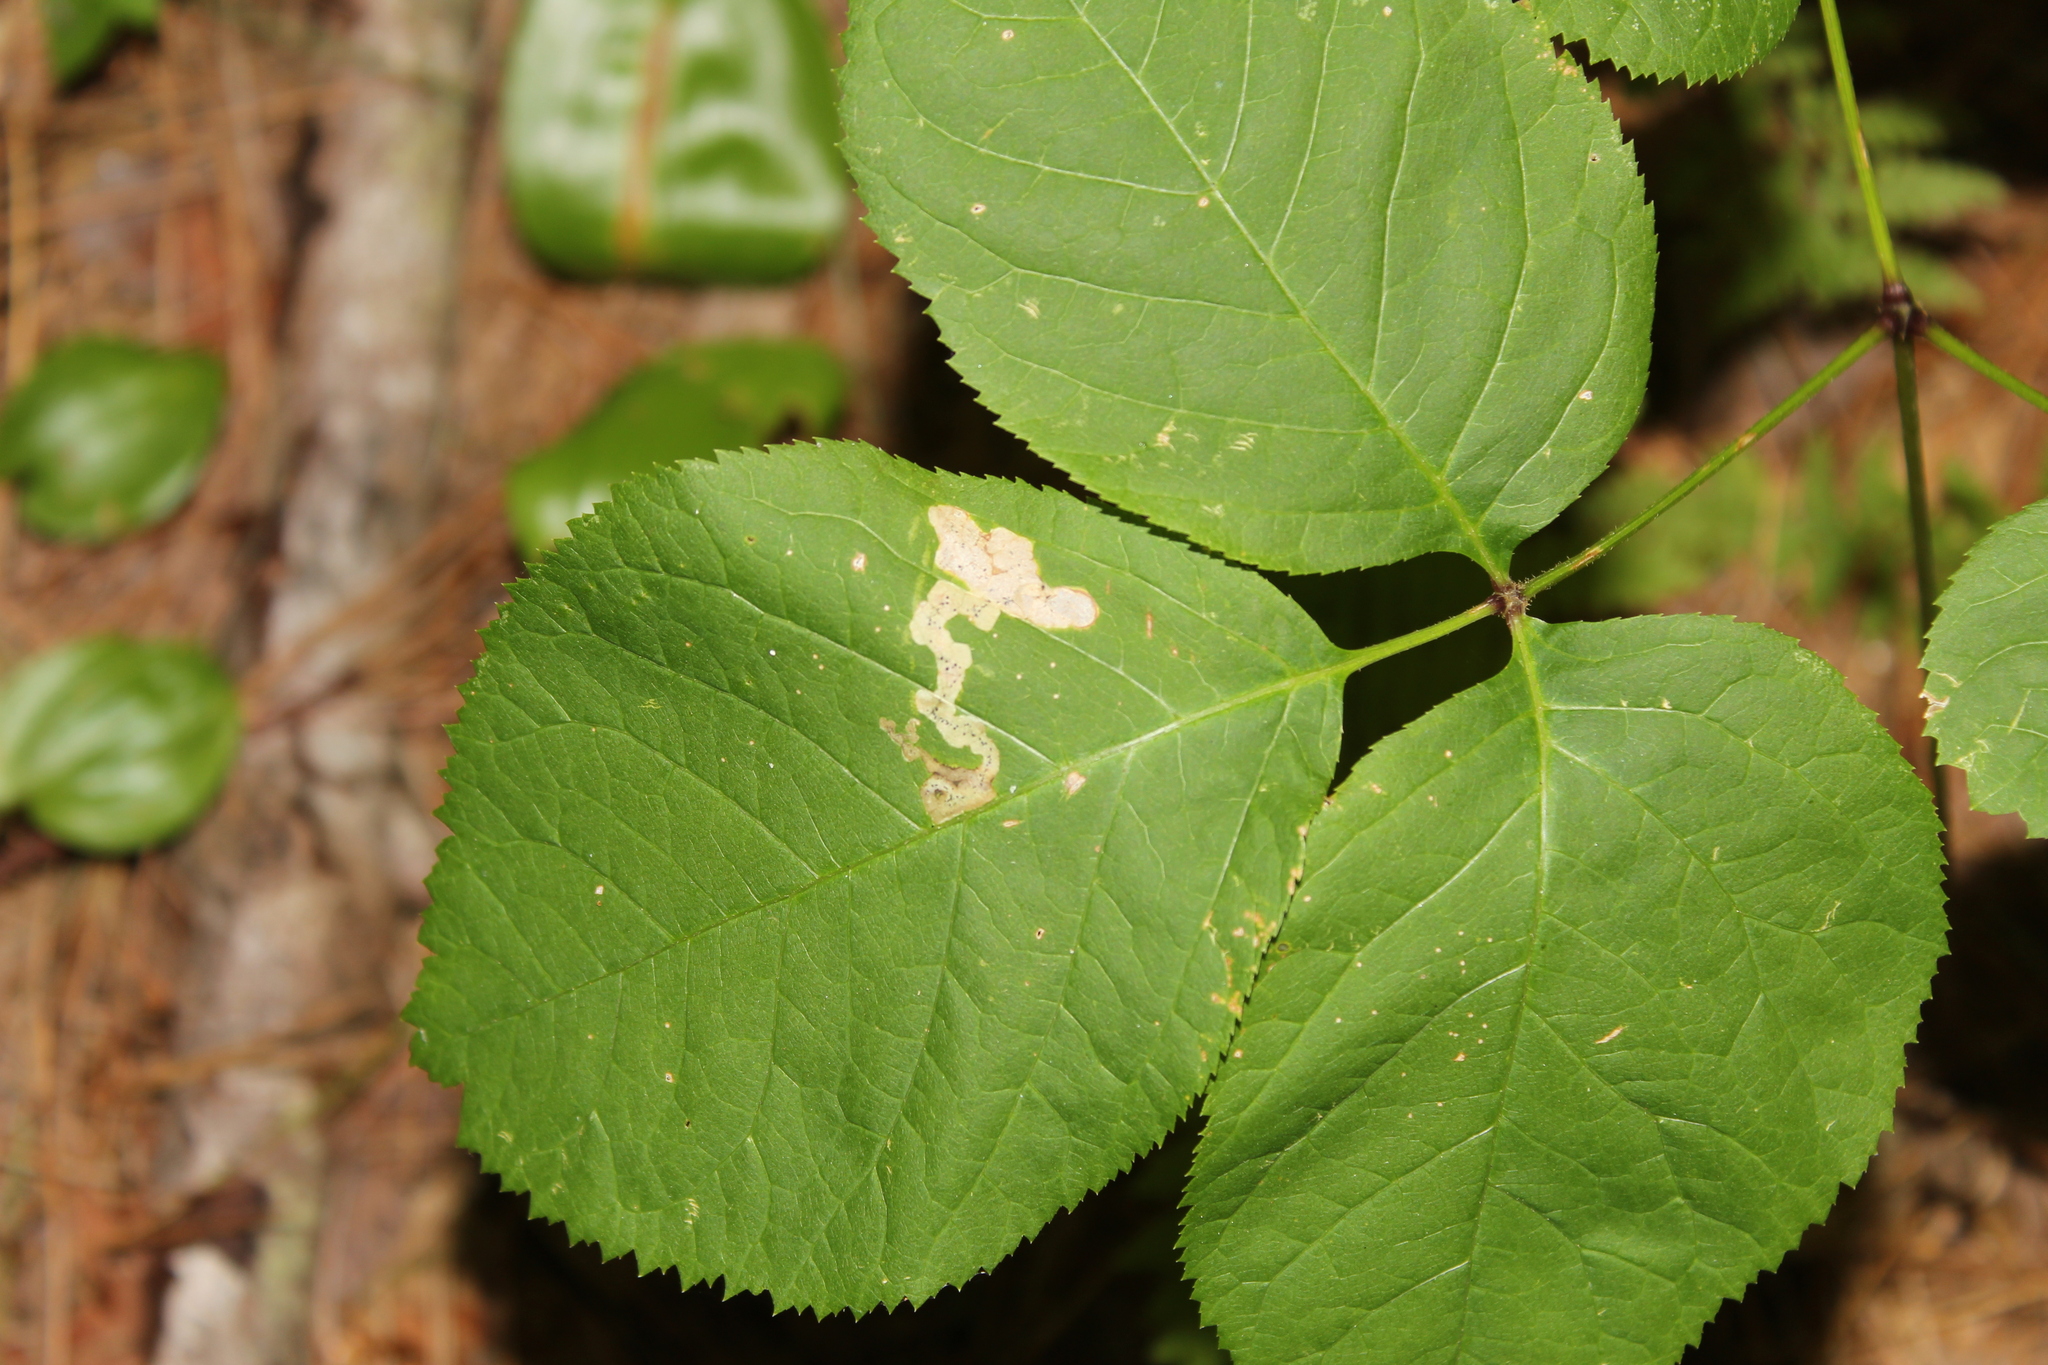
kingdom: Animalia
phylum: Arthropoda
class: Insecta
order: Diptera
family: Agromyzidae
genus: Phytomyza
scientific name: Phytomyza aralivora
